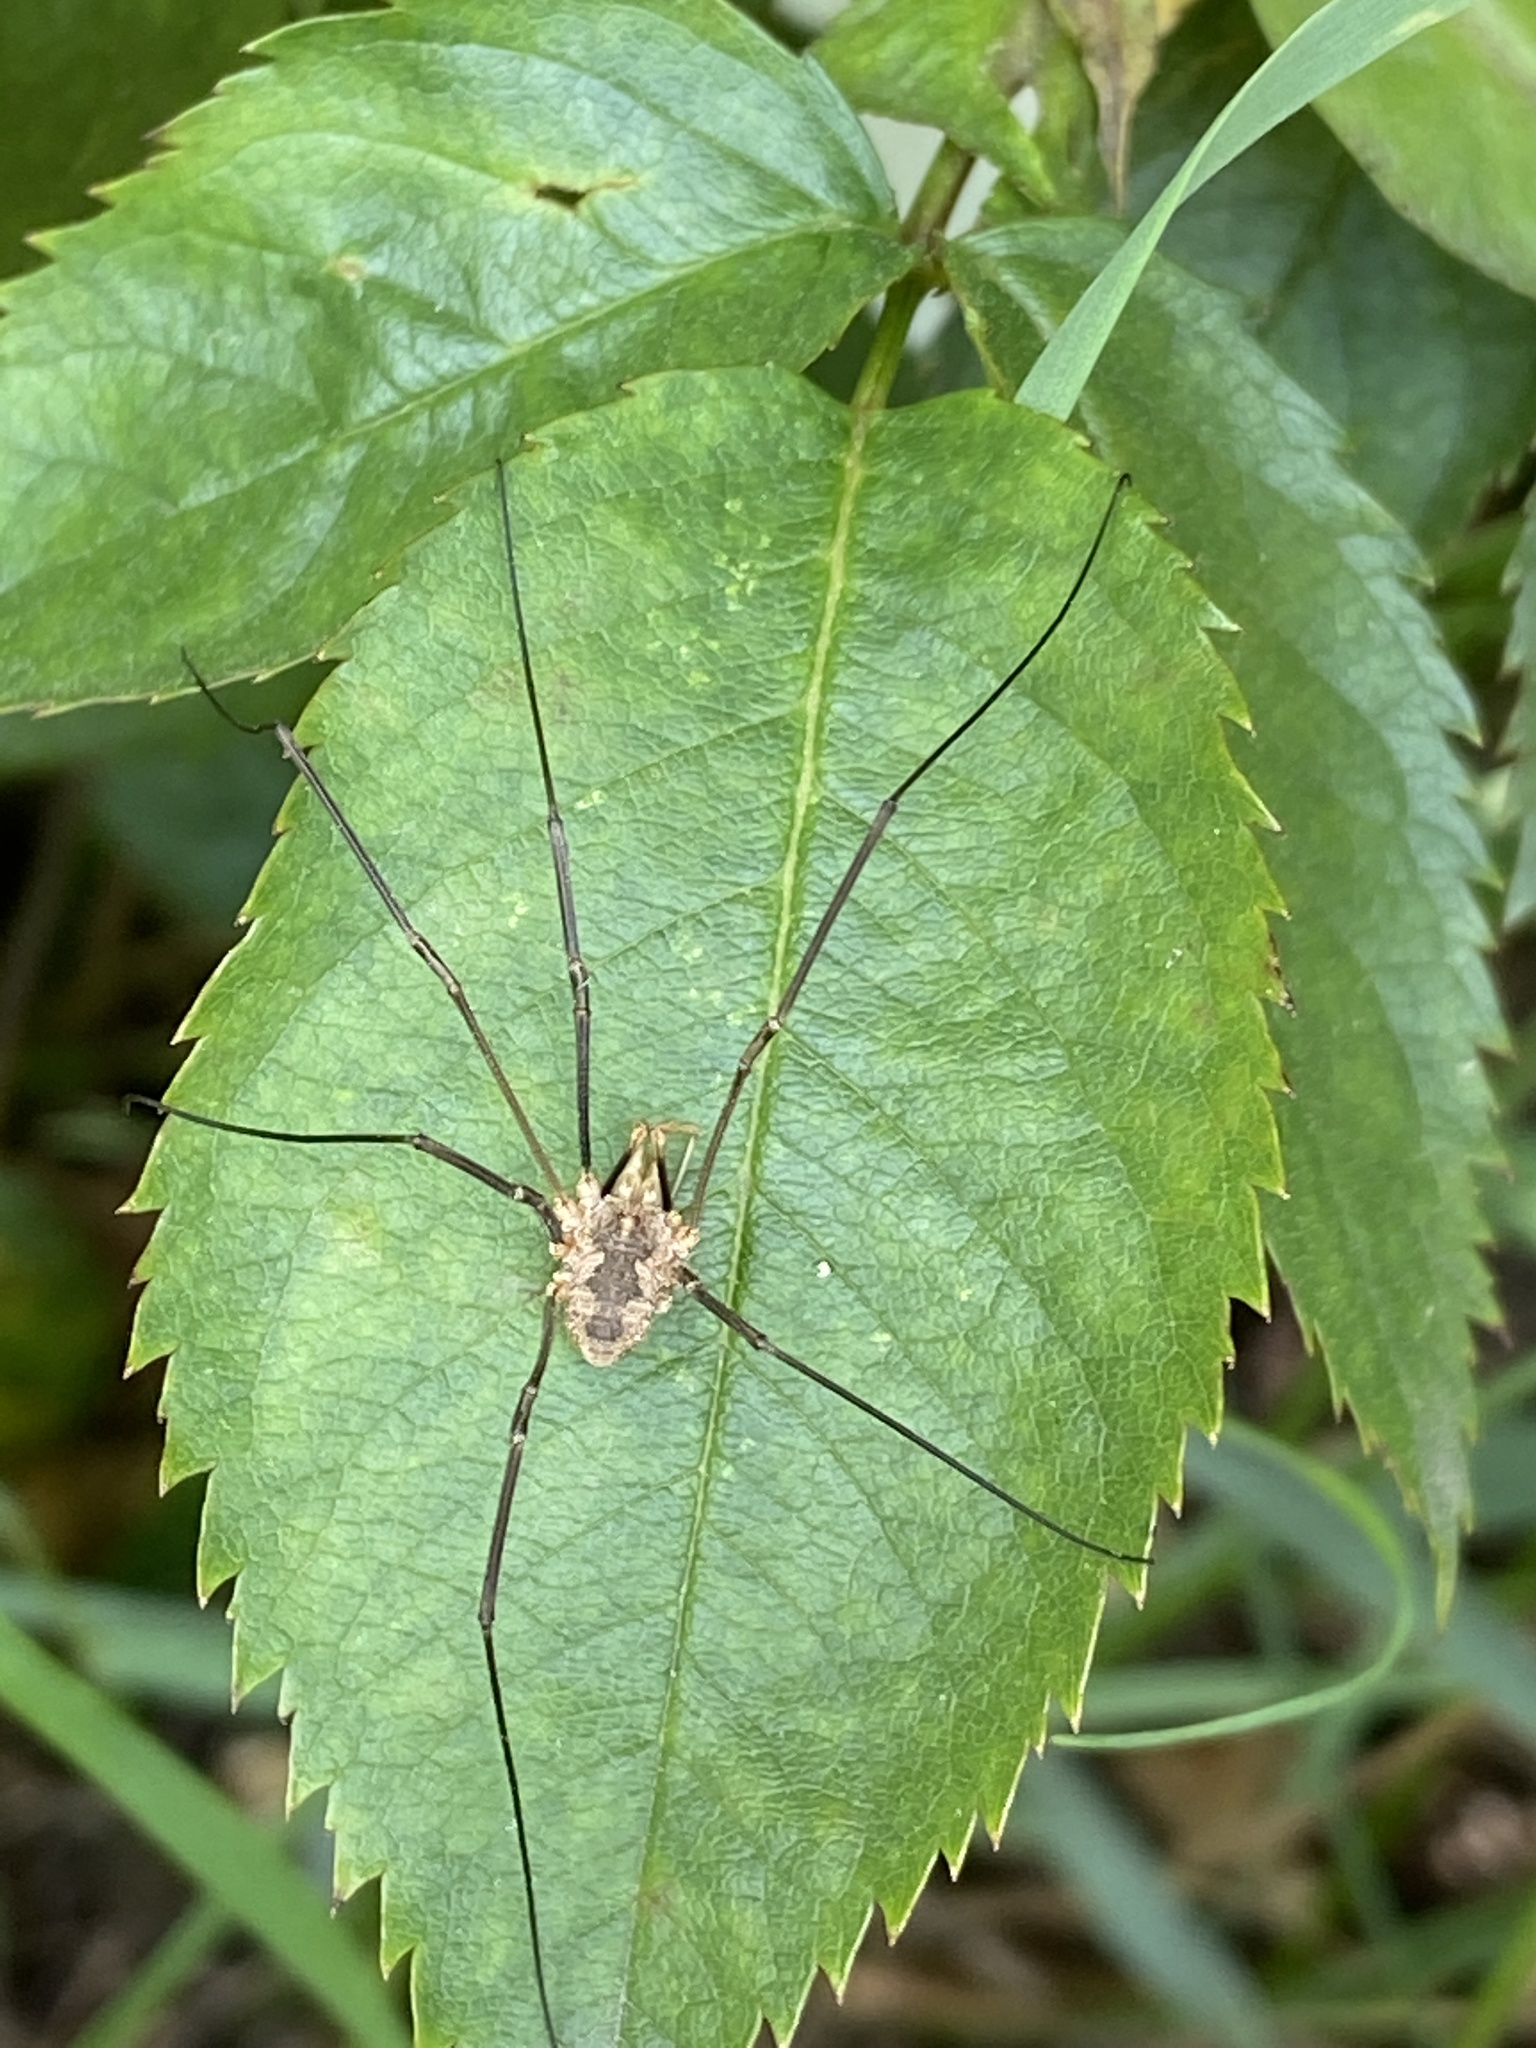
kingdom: Animalia
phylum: Arthropoda
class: Arachnida
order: Opiliones
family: Phalangiidae
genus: Phalangium
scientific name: Phalangium opilio
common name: Daddy longleg
